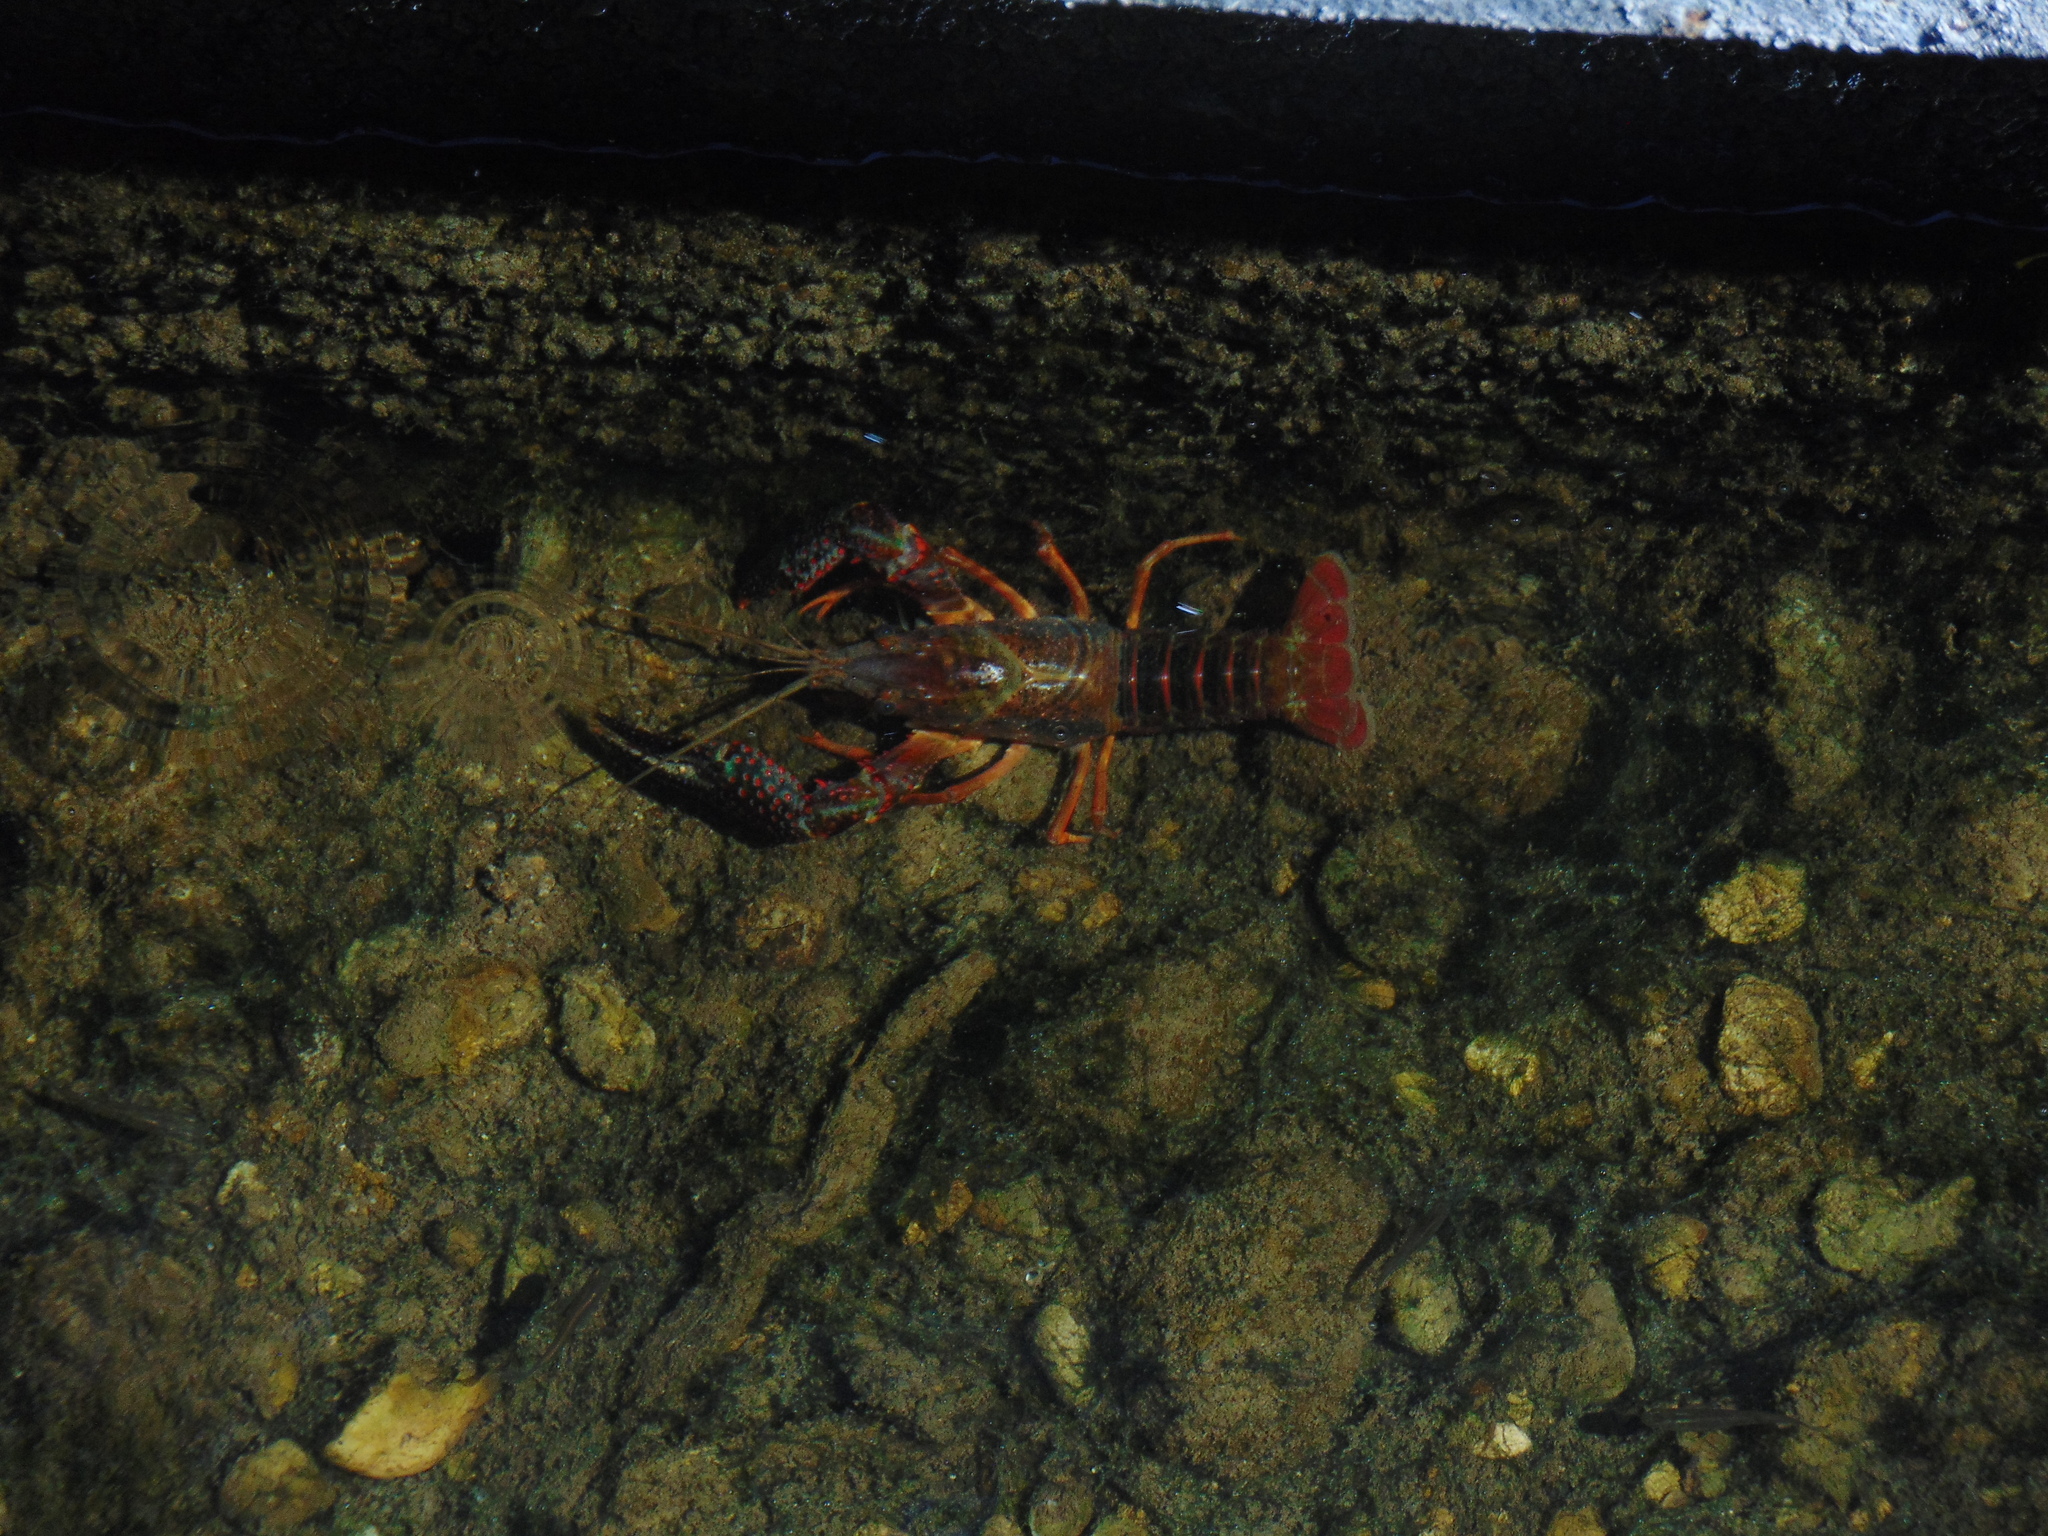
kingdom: Animalia
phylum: Arthropoda
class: Malacostraca
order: Decapoda
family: Cambaridae
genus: Procambarus
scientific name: Procambarus clarkii
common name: Red swamp crayfish
